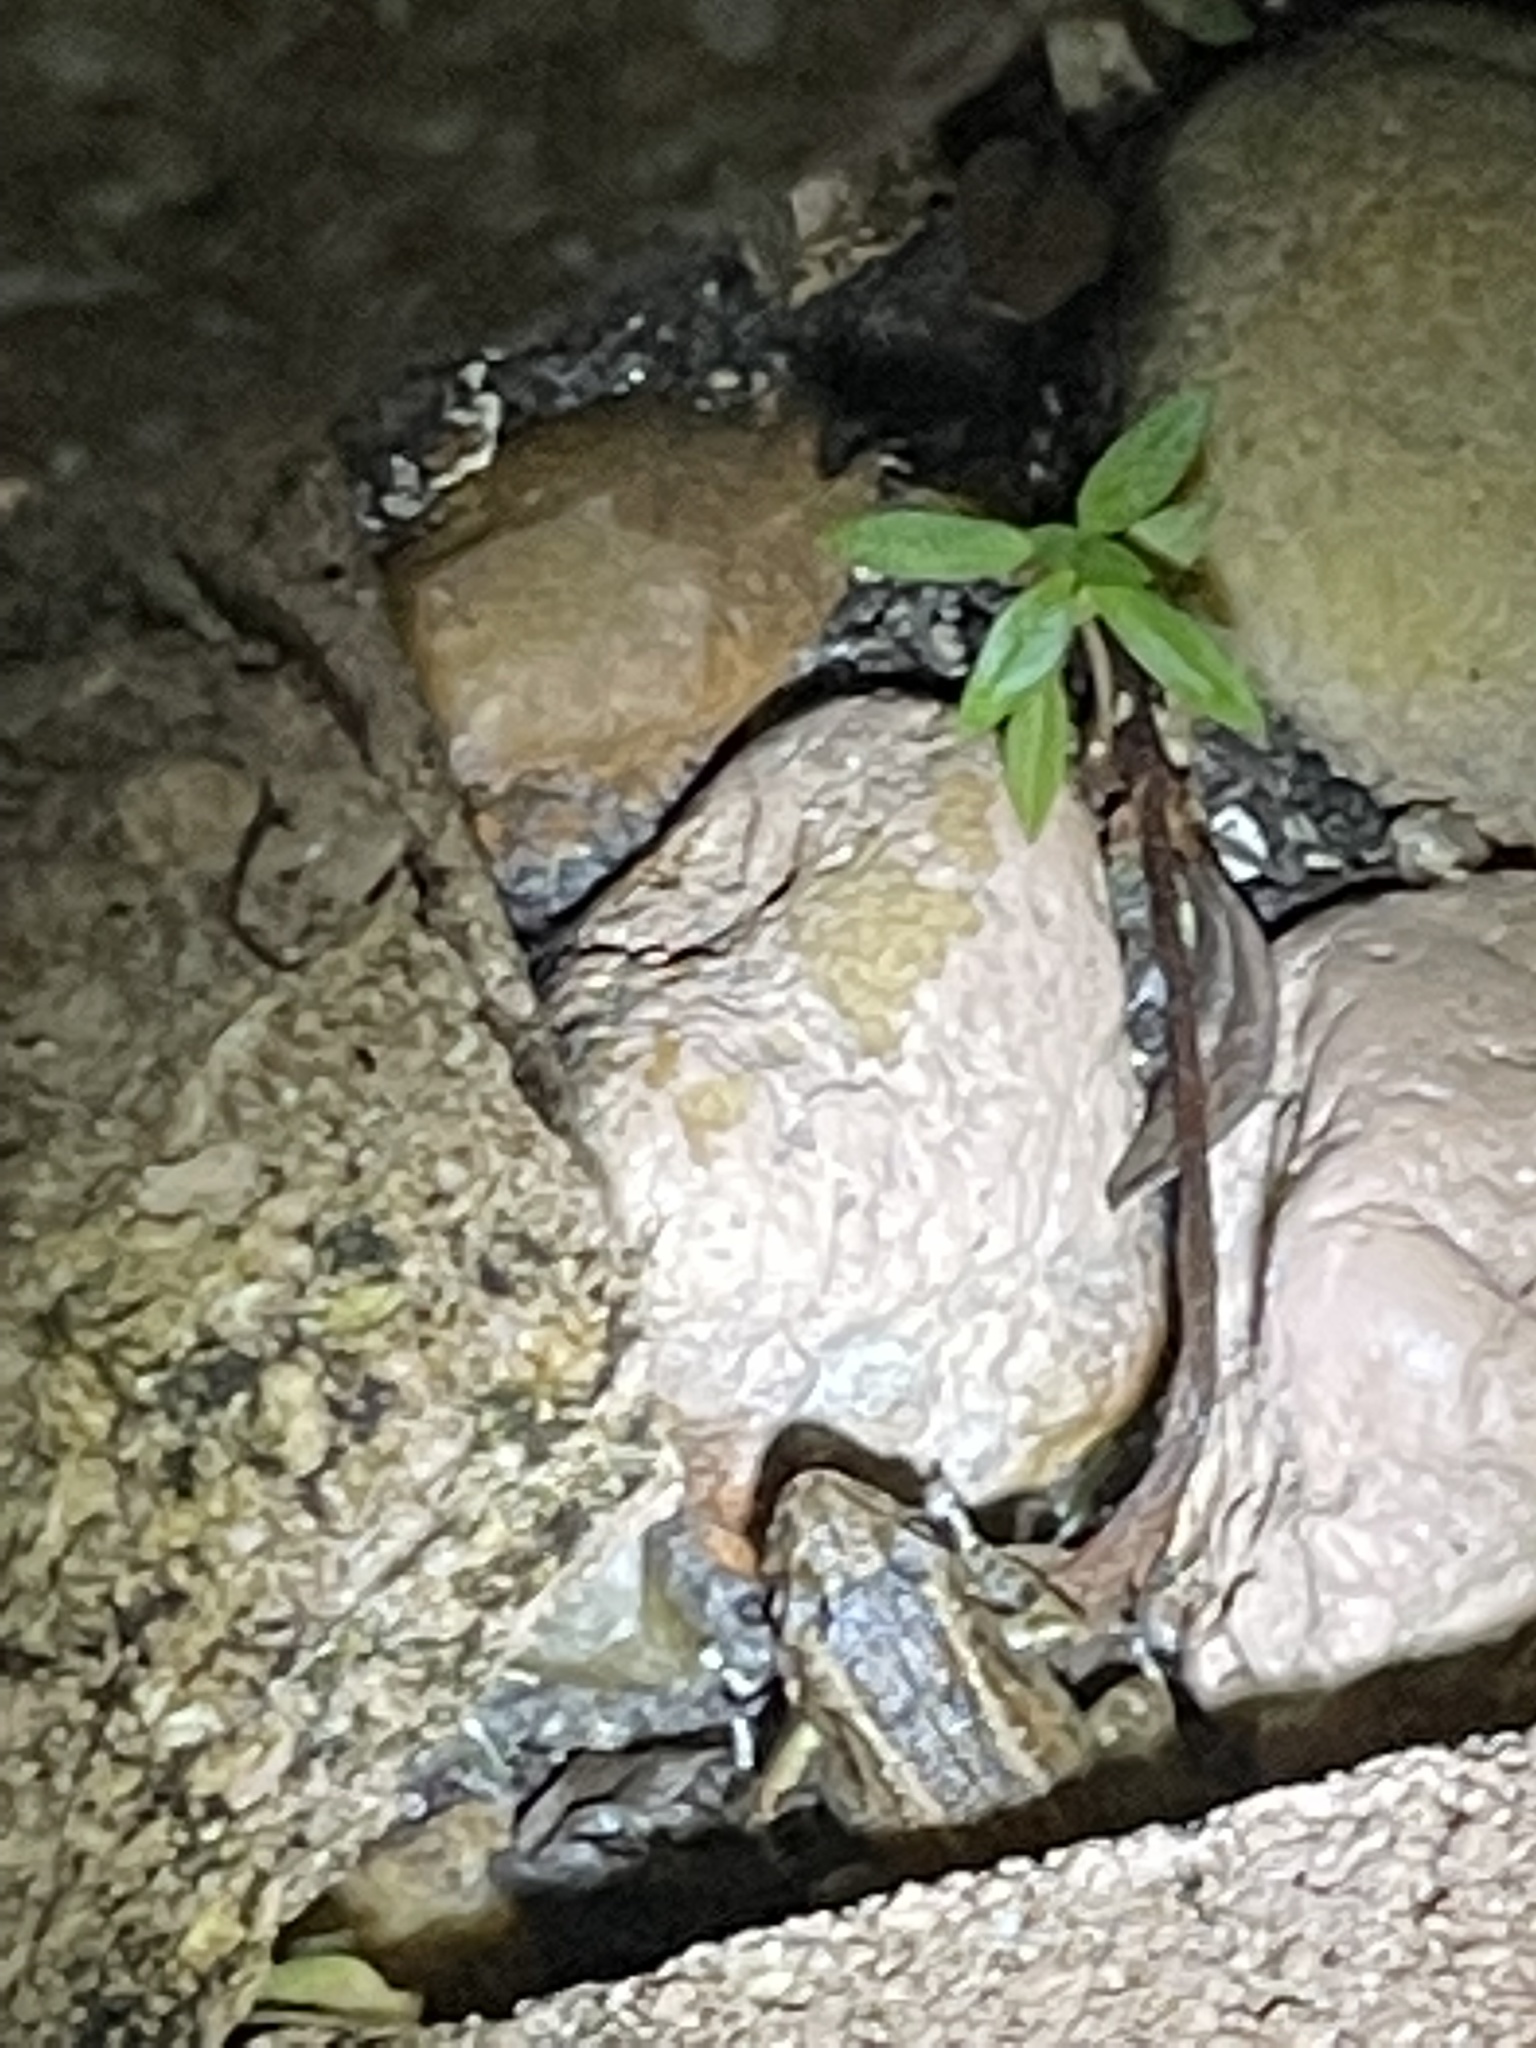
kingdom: Animalia
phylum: Chordata
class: Amphibia
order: Anura
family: Eleutherodactylidae
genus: Eleutherodactylus
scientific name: Eleutherodactylus planirostris
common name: Greenhouse frog
